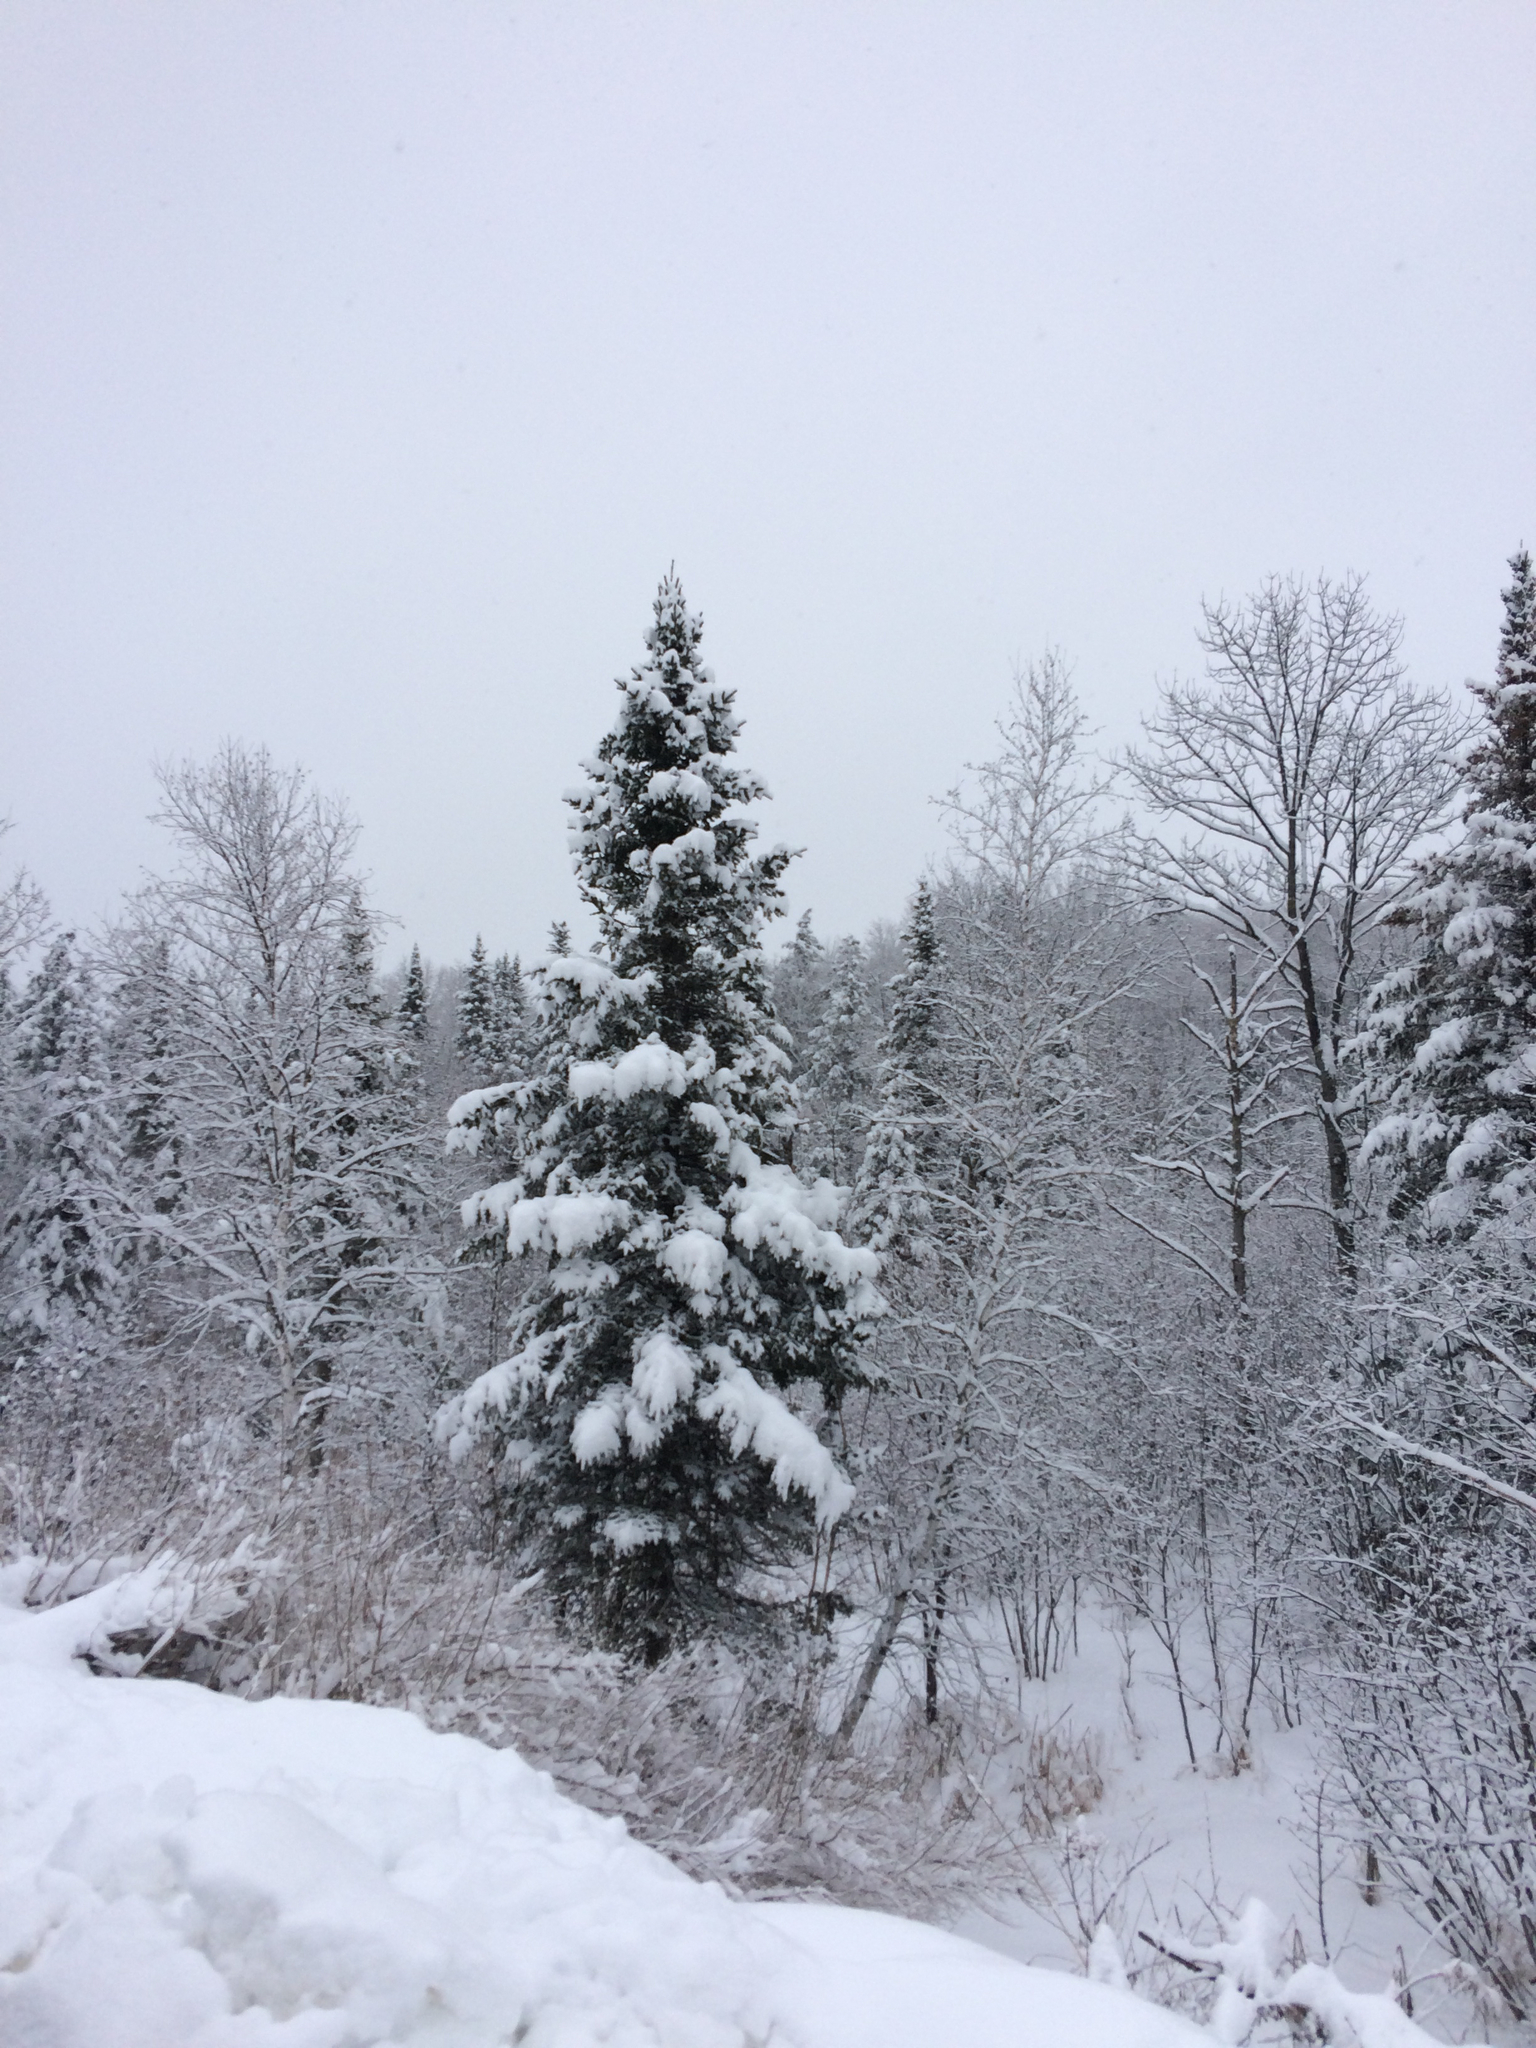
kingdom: Plantae
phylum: Tracheophyta
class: Pinopsida
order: Pinales
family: Pinaceae
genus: Abies
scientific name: Abies balsamea
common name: Balsam fir
